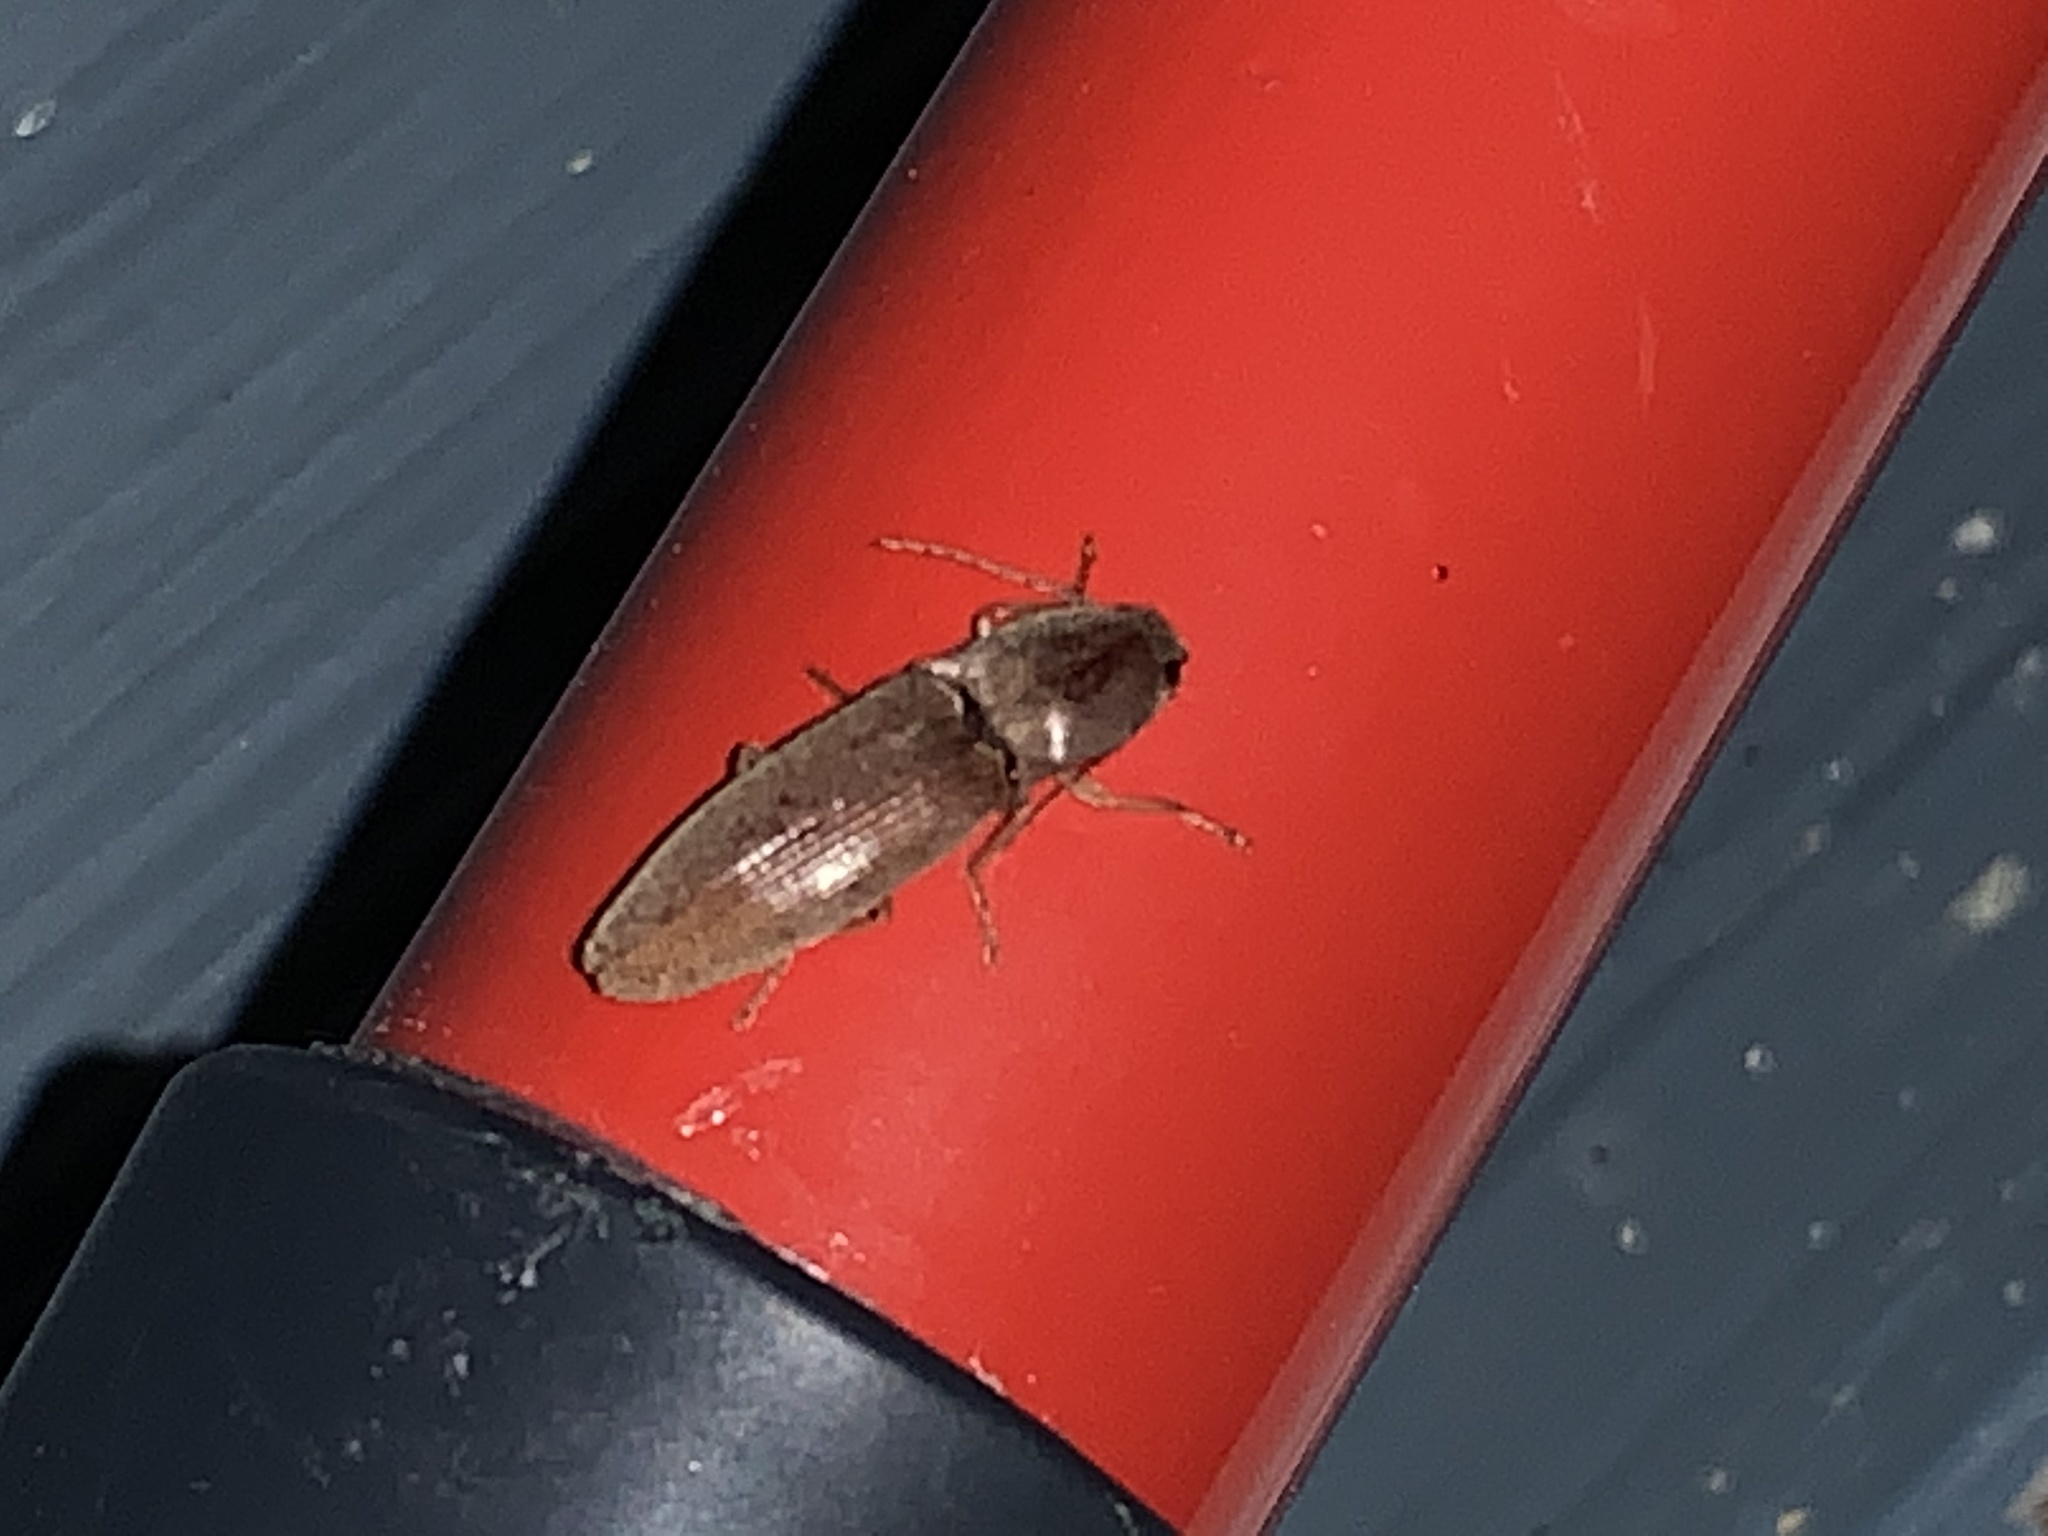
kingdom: Animalia
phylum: Arthropoda
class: Insecta
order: Coleoptera
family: Elateridae
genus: Monocrepidius
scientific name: Monocrepidius lividus
